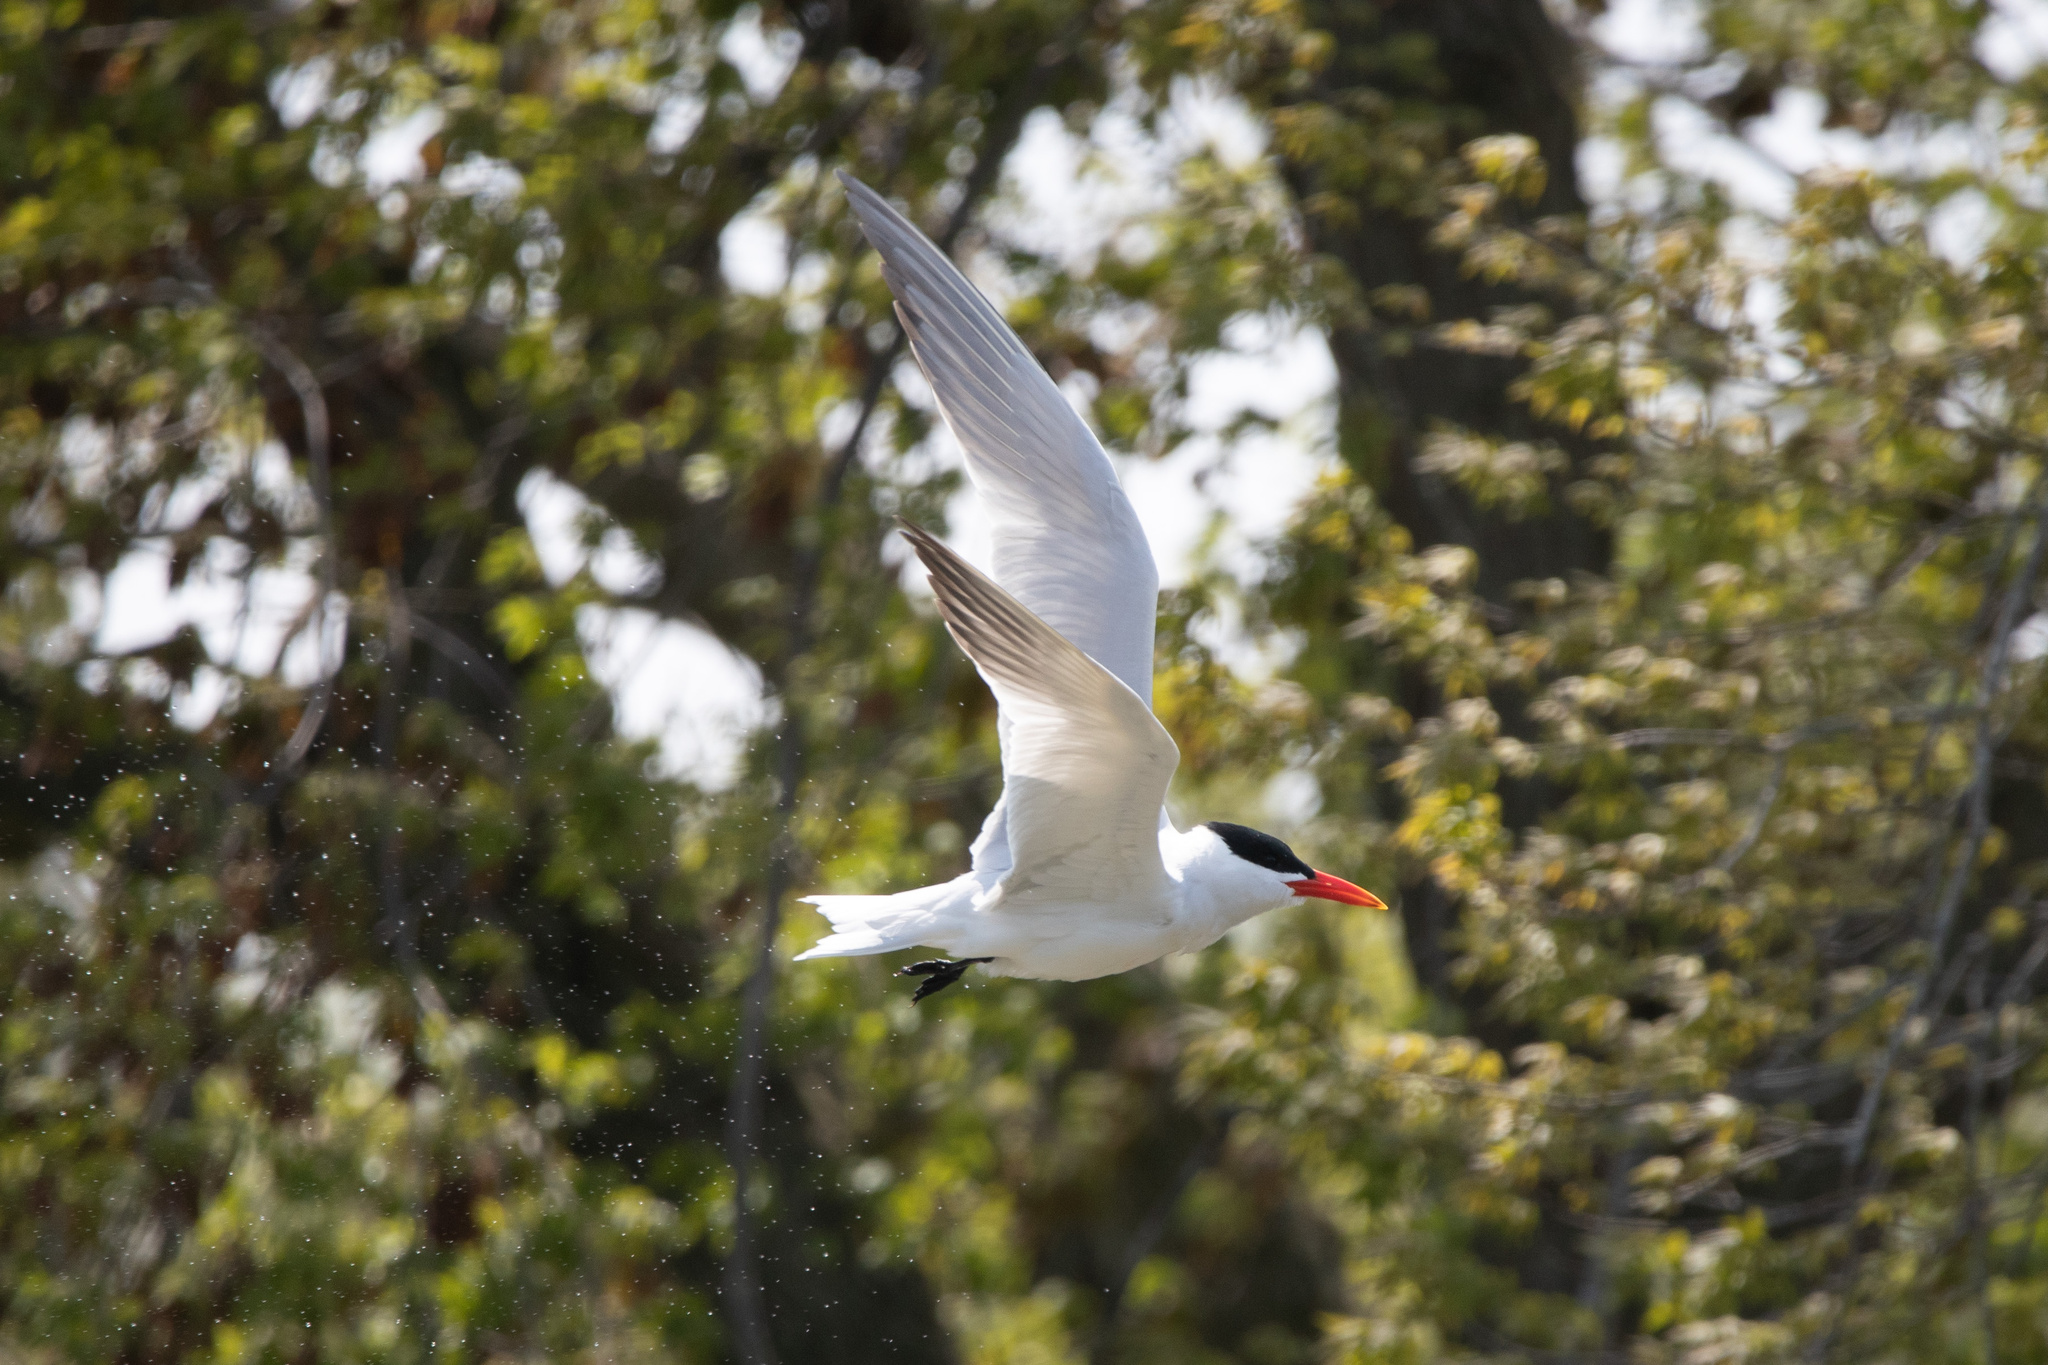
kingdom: Animalia
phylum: Chordata
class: Aves
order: Charadriiformes
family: Laridae
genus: Hydroprogne
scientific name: Hydroprogne caspia
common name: Caspian tern
